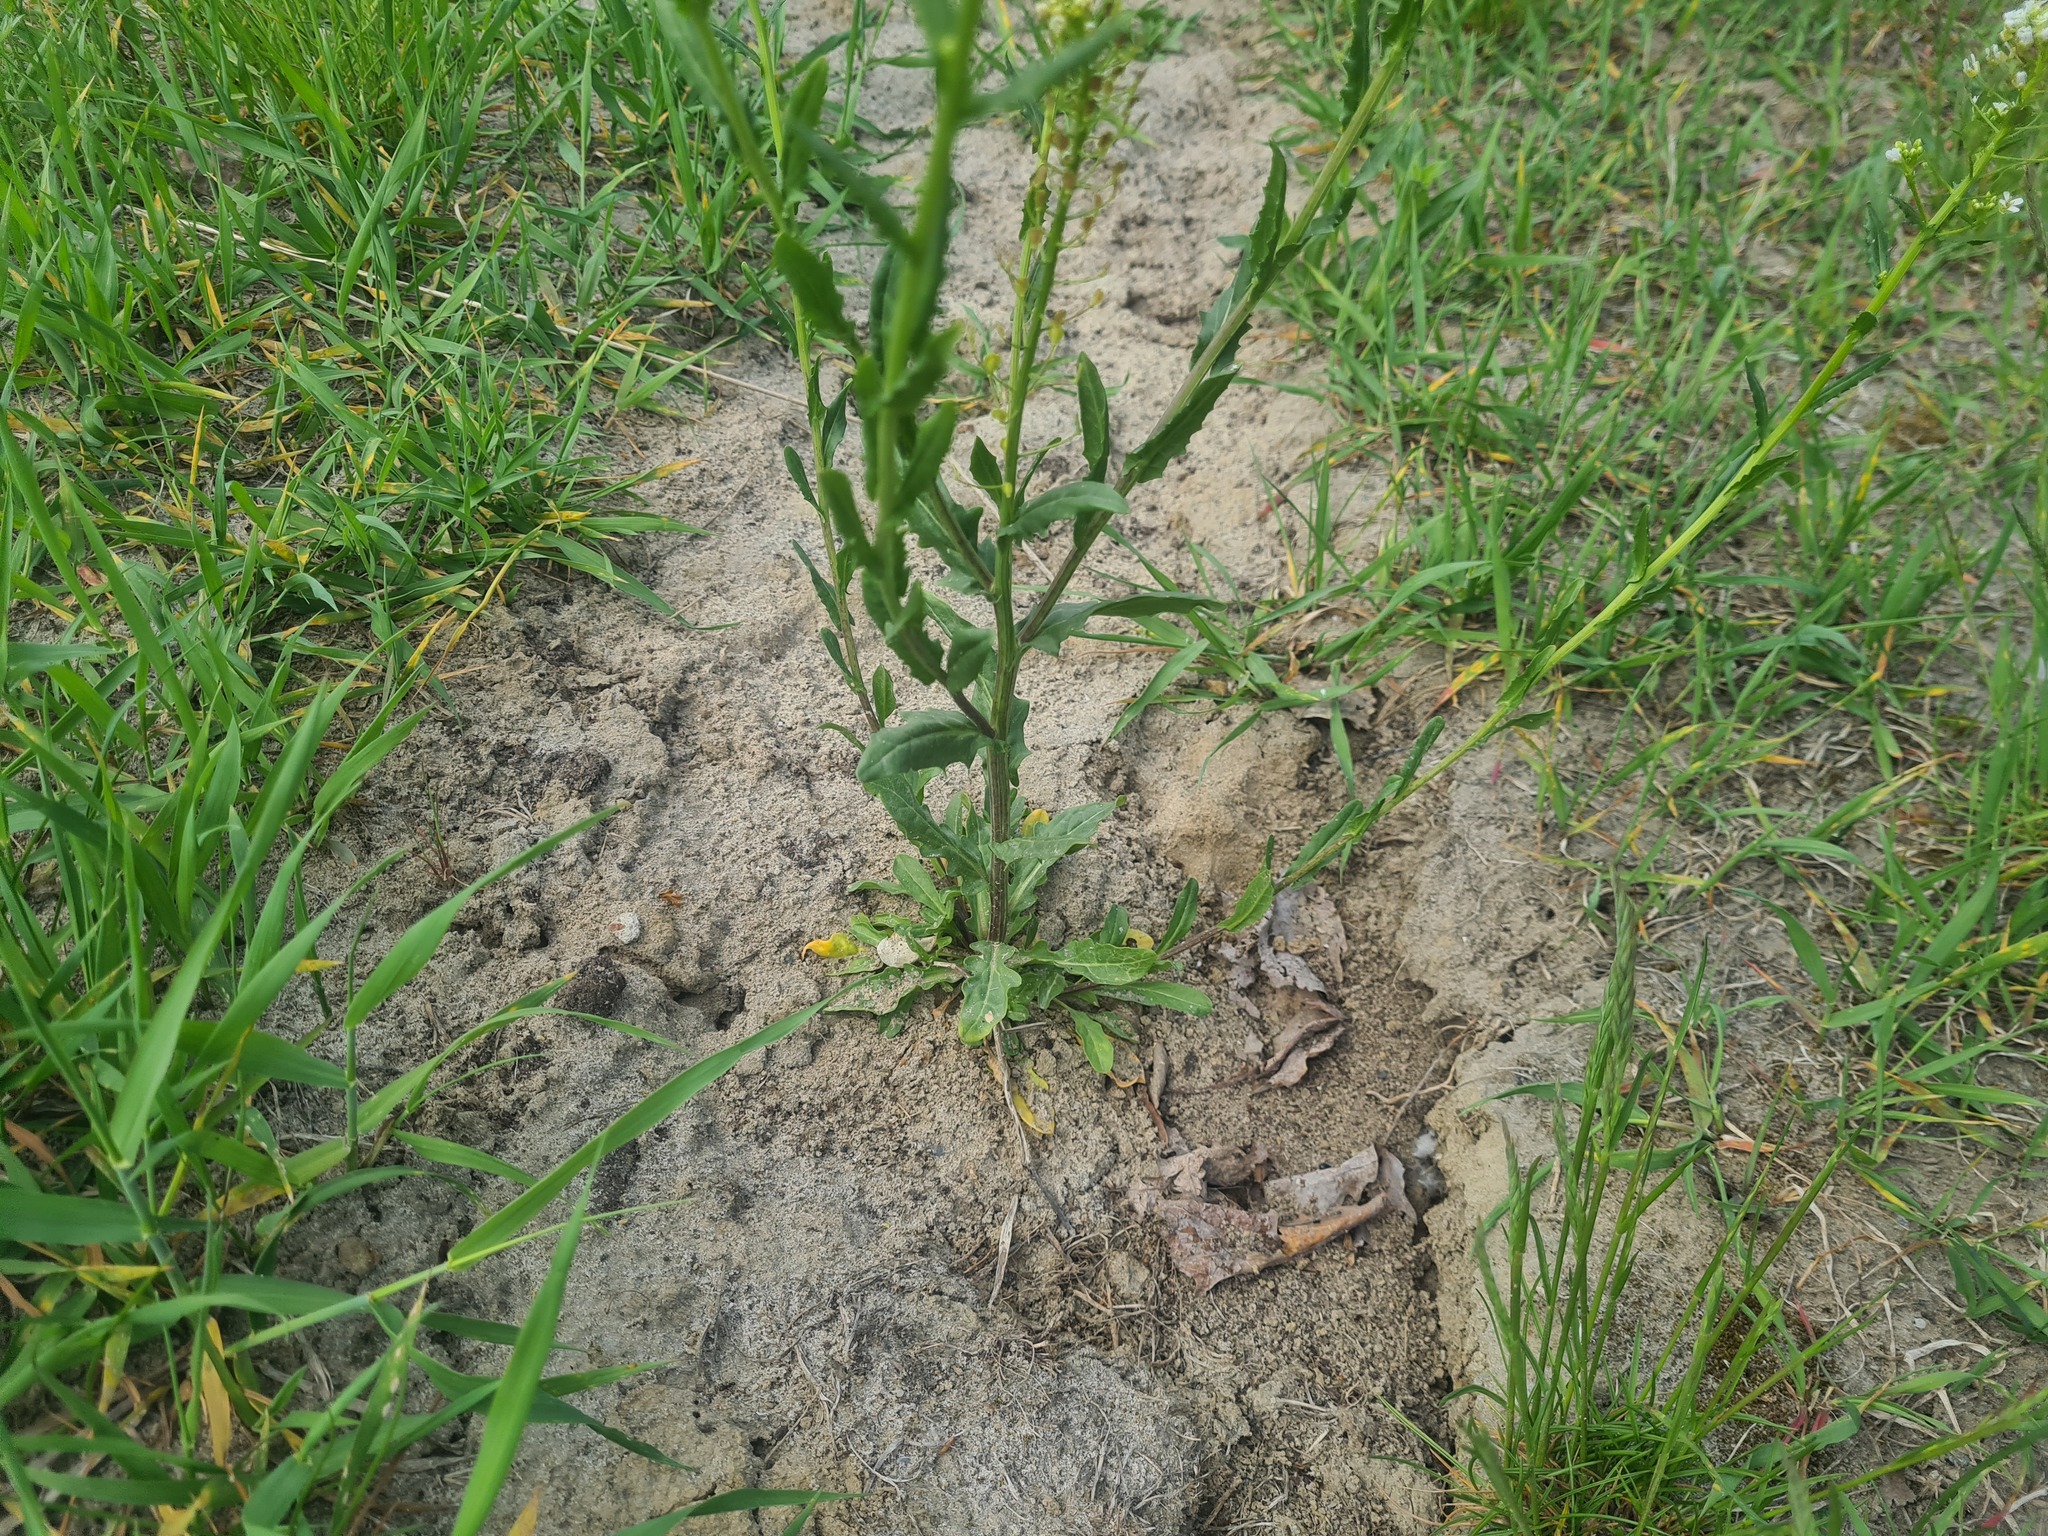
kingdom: Plantae
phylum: Tracheophyta
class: Magnoliopsida
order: Brassicales
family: Brassicaceae
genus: Thlaspi
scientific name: Thlaspi arvense
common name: Field pennycress
